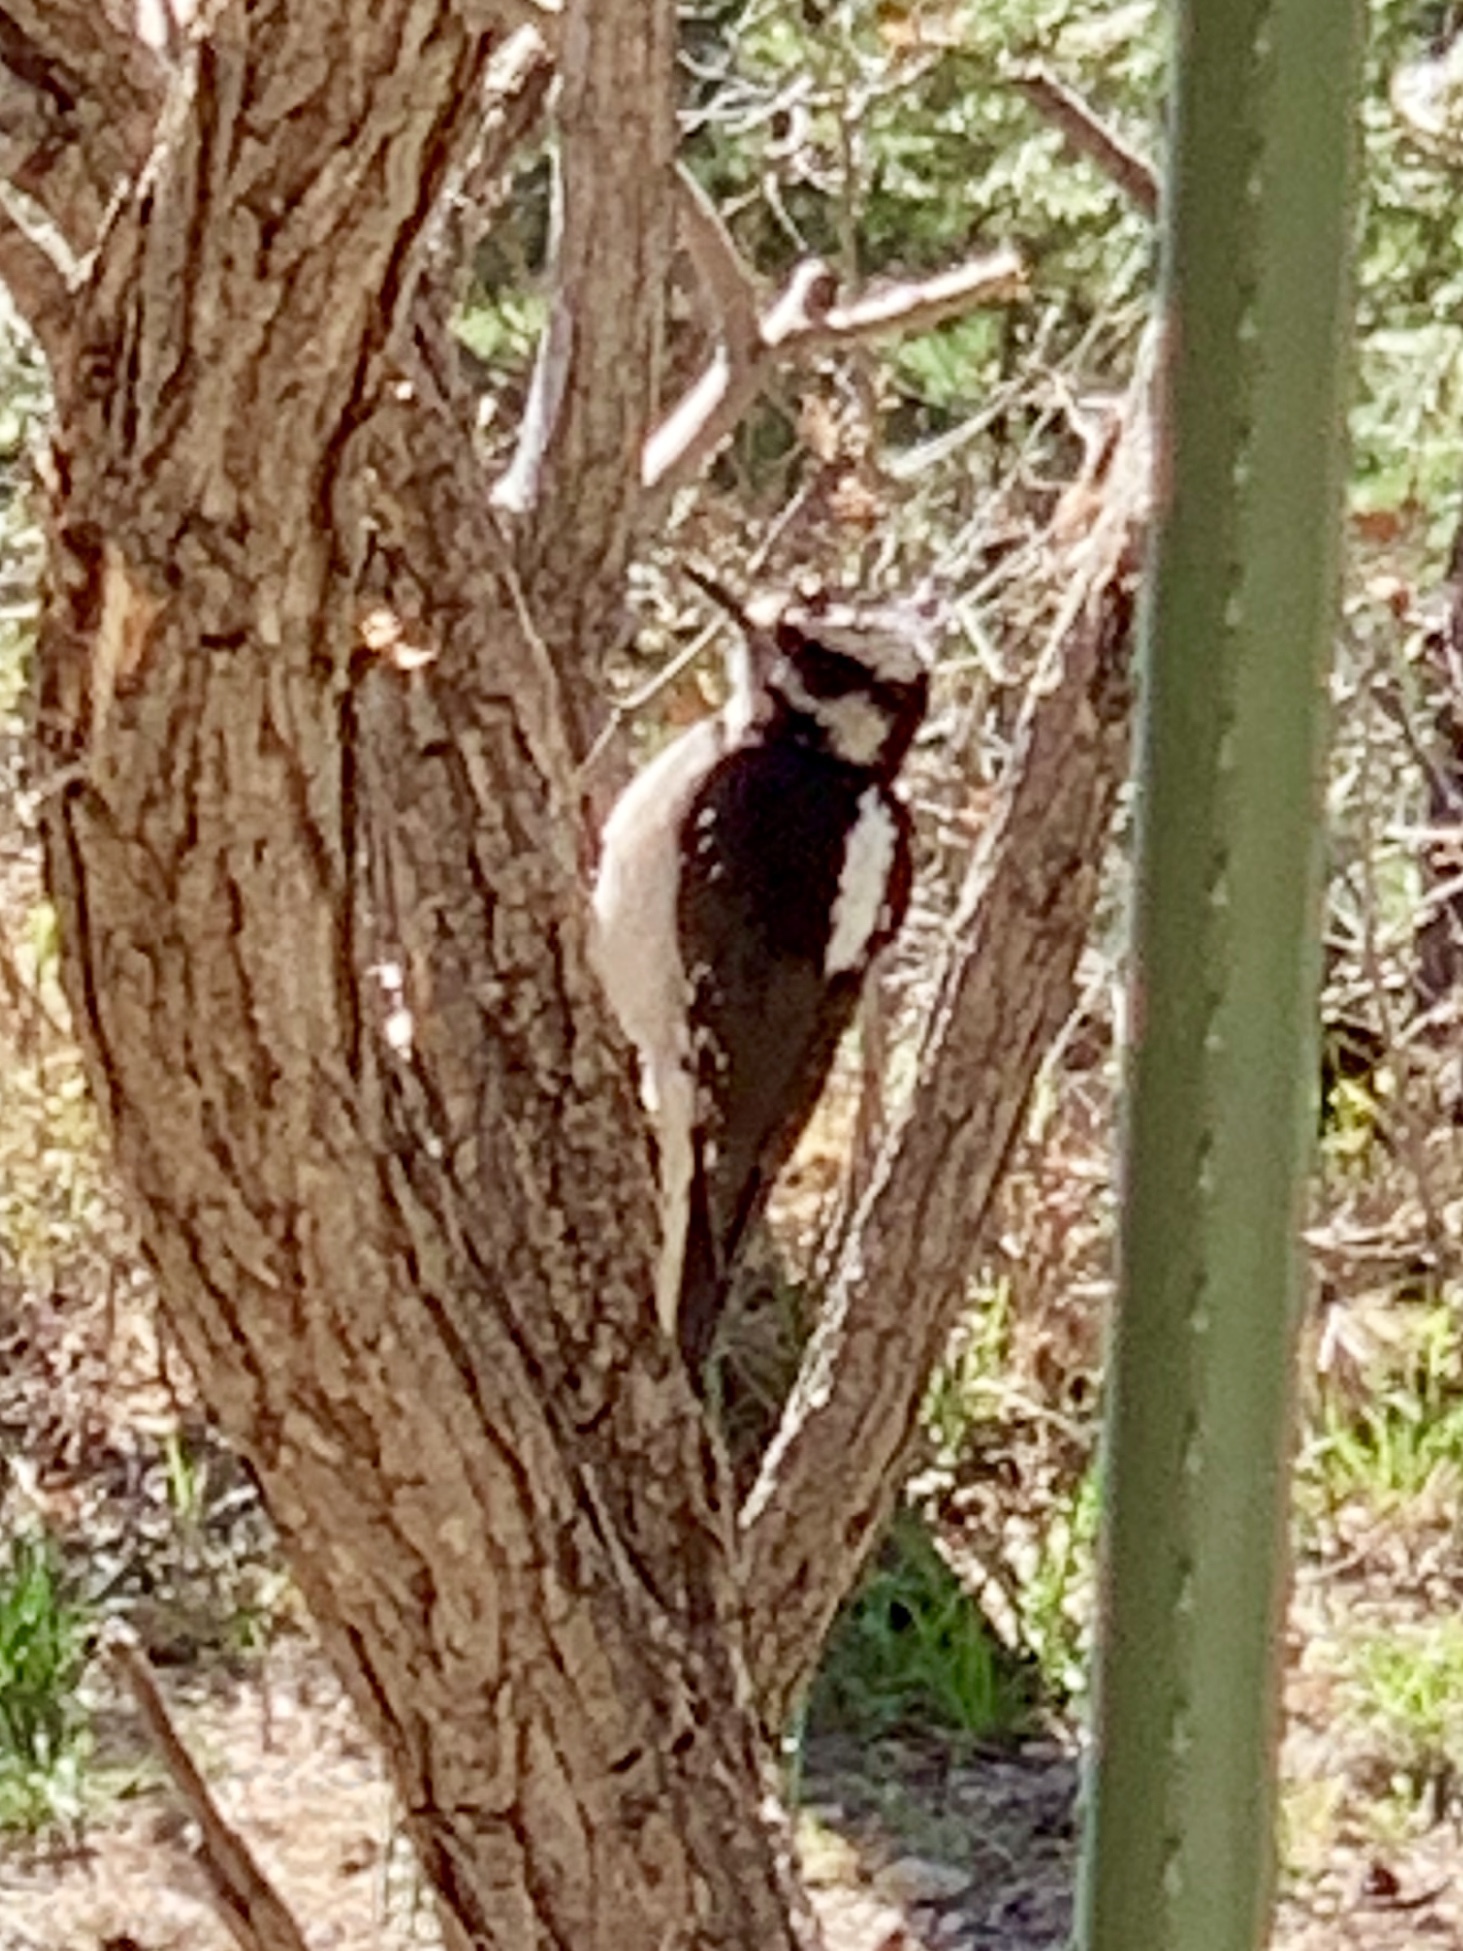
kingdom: Animalia
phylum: Chordata
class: Aves
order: Piciformes
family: Picidae
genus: Leuconotopicus
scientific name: Leuconotopicus villosus
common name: Hairy woodpecker
